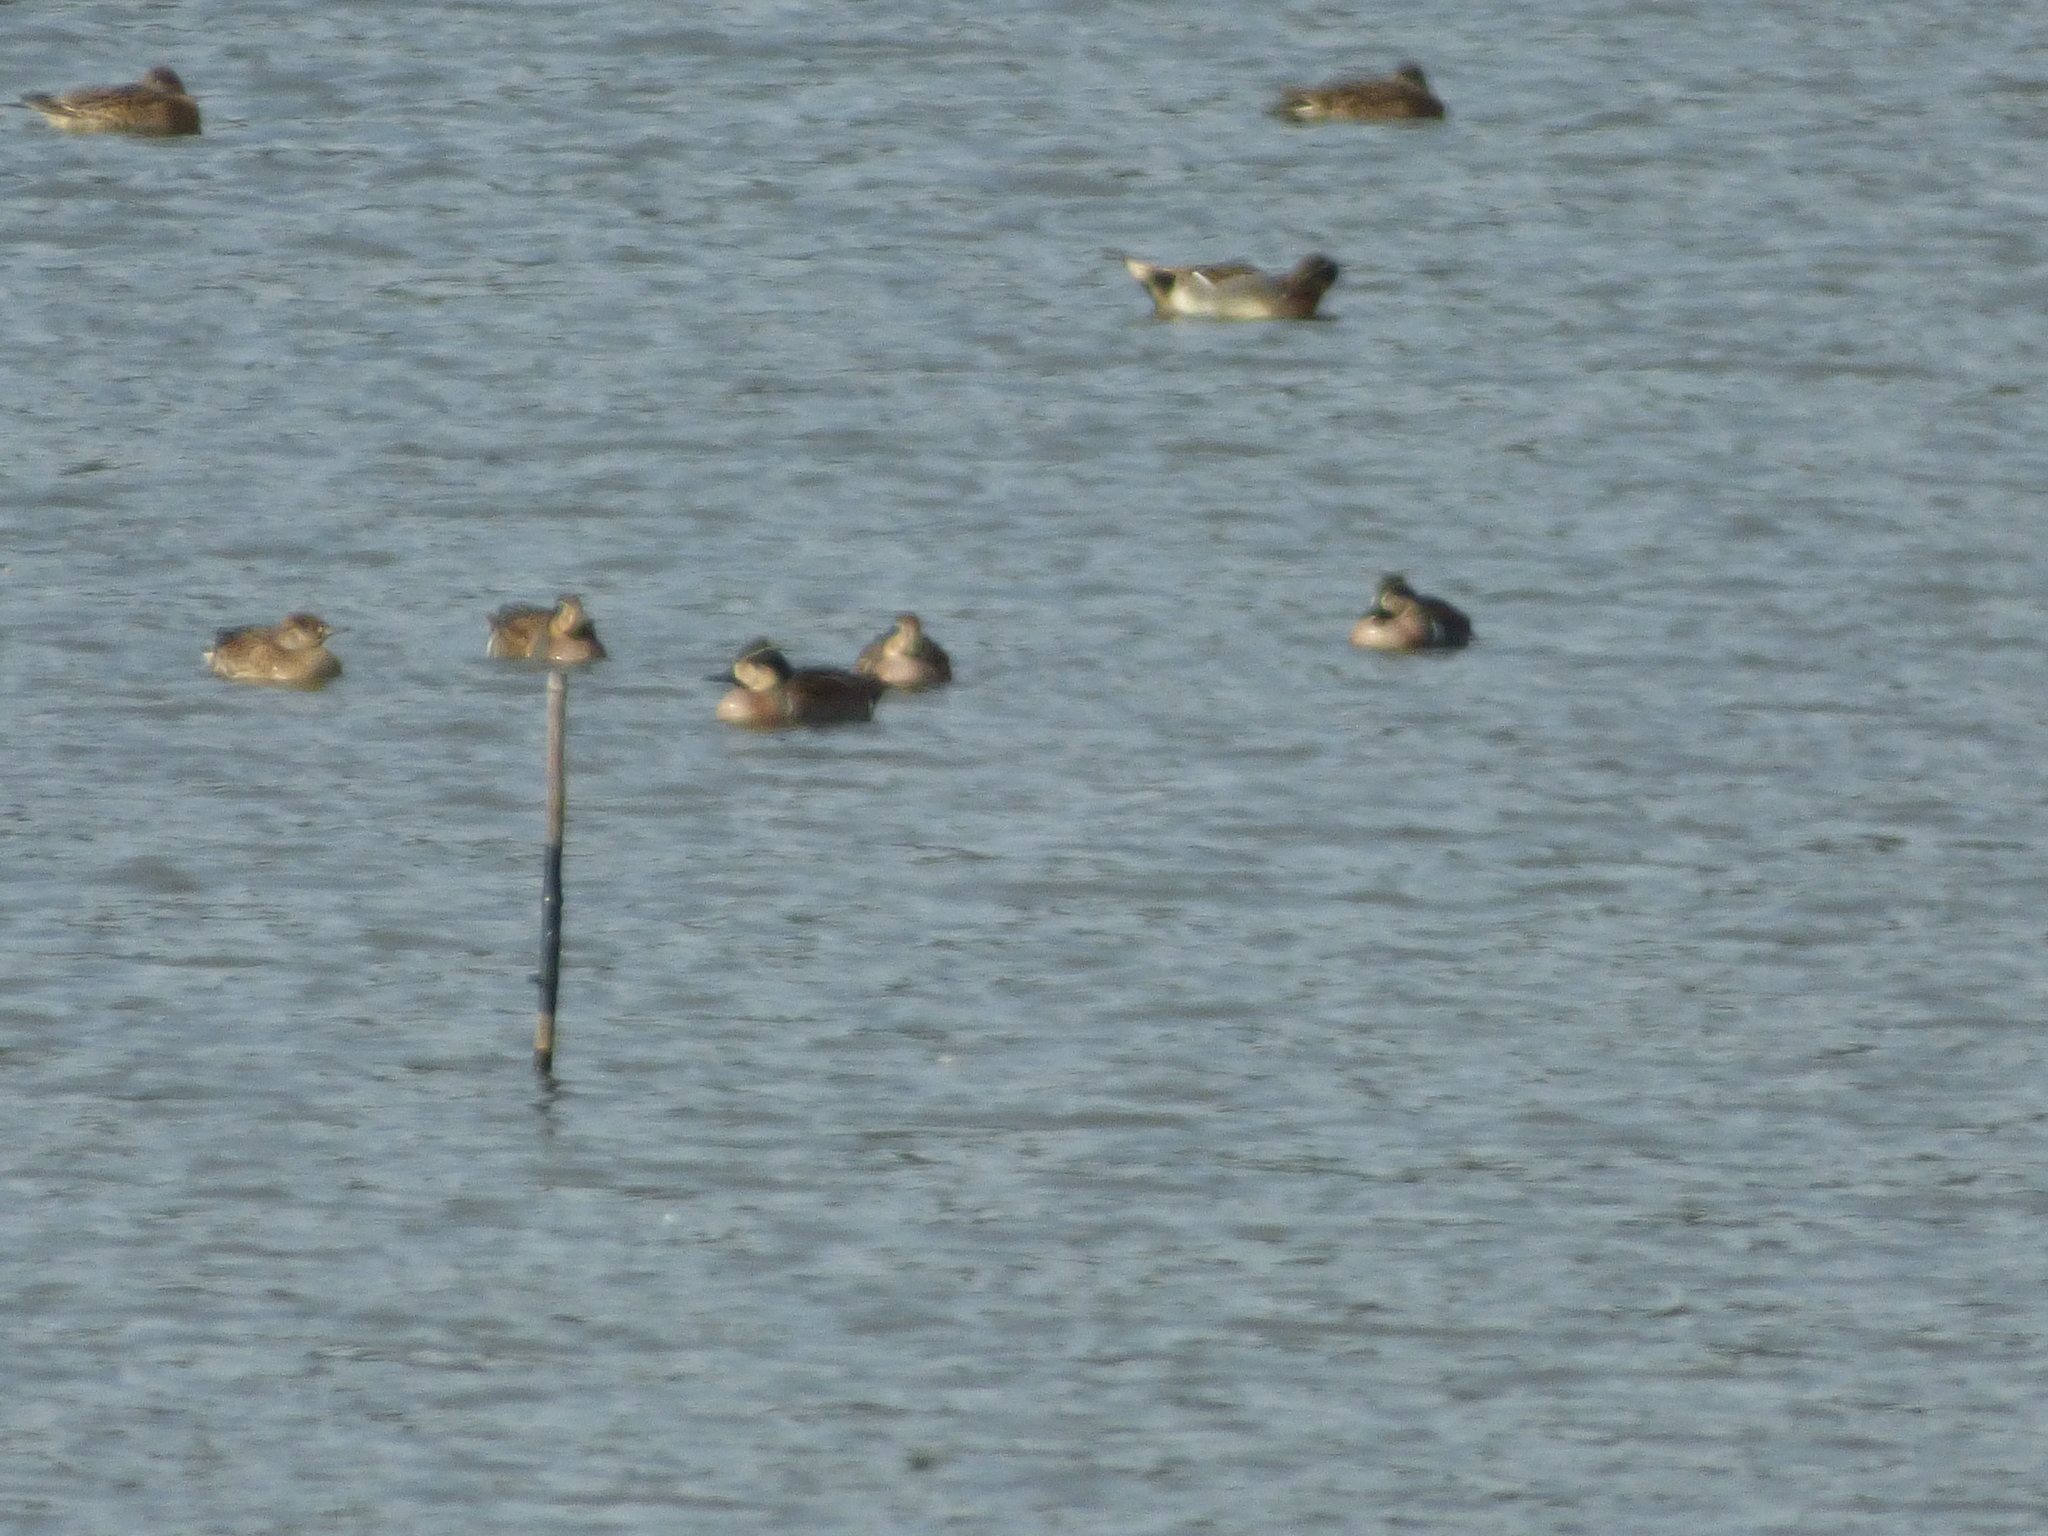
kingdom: Animalia
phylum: Chordata
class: Aves
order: Anseriformes
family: Anatidae
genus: Sibirionetta
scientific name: Sibirionetta formosa
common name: Baikal teal
